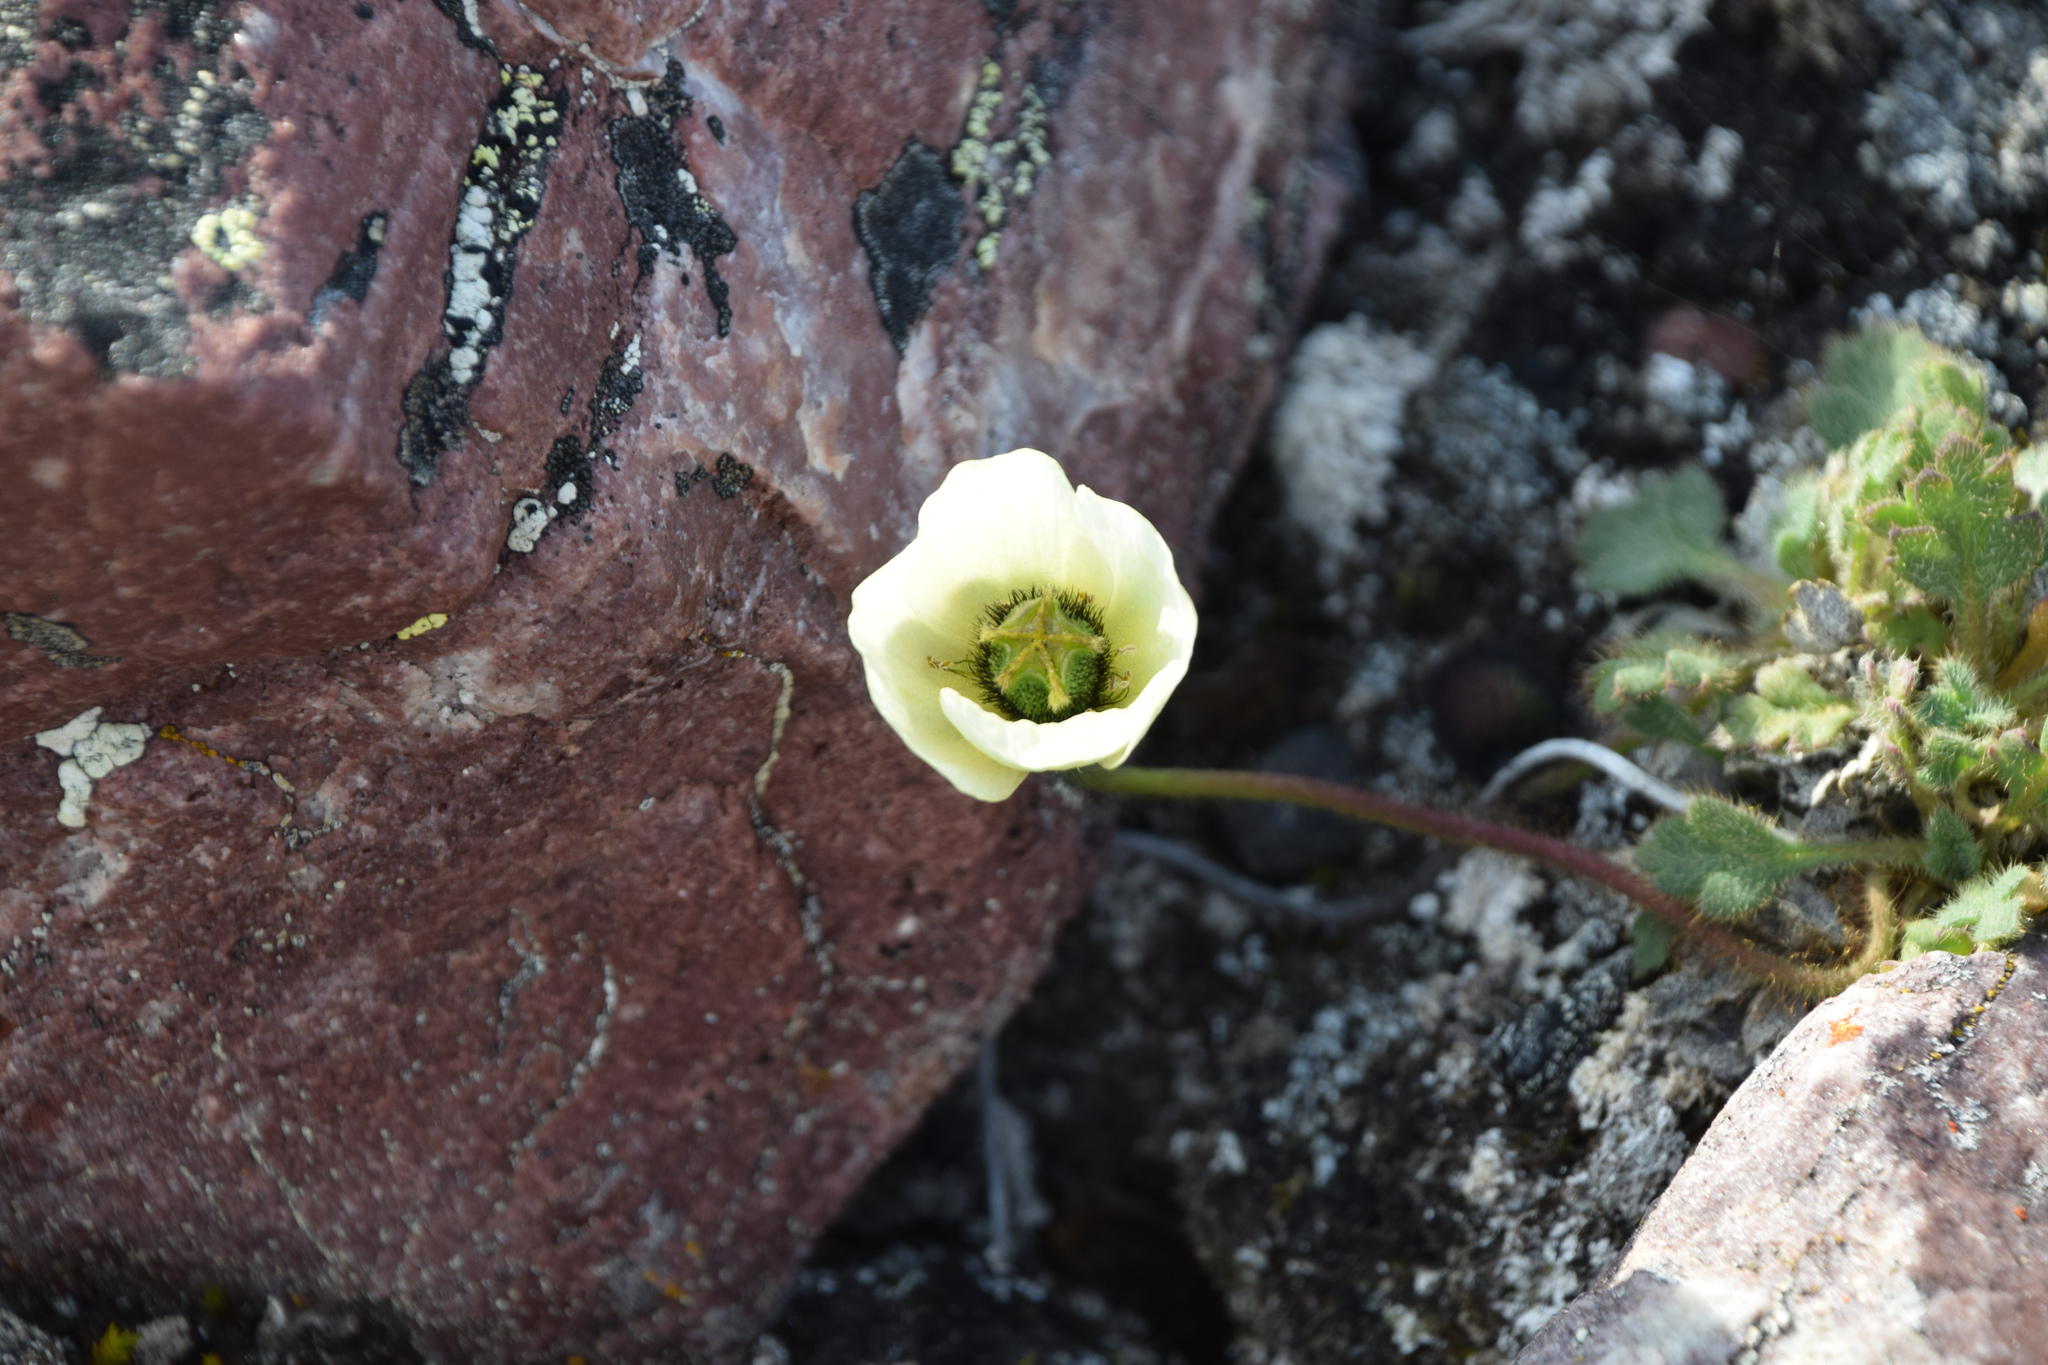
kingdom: Plantae
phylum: Tracheophyta
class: Magnoliopsida
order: Ranunculales
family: Papaveraceae
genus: Papaver
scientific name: Papaver radicatum
